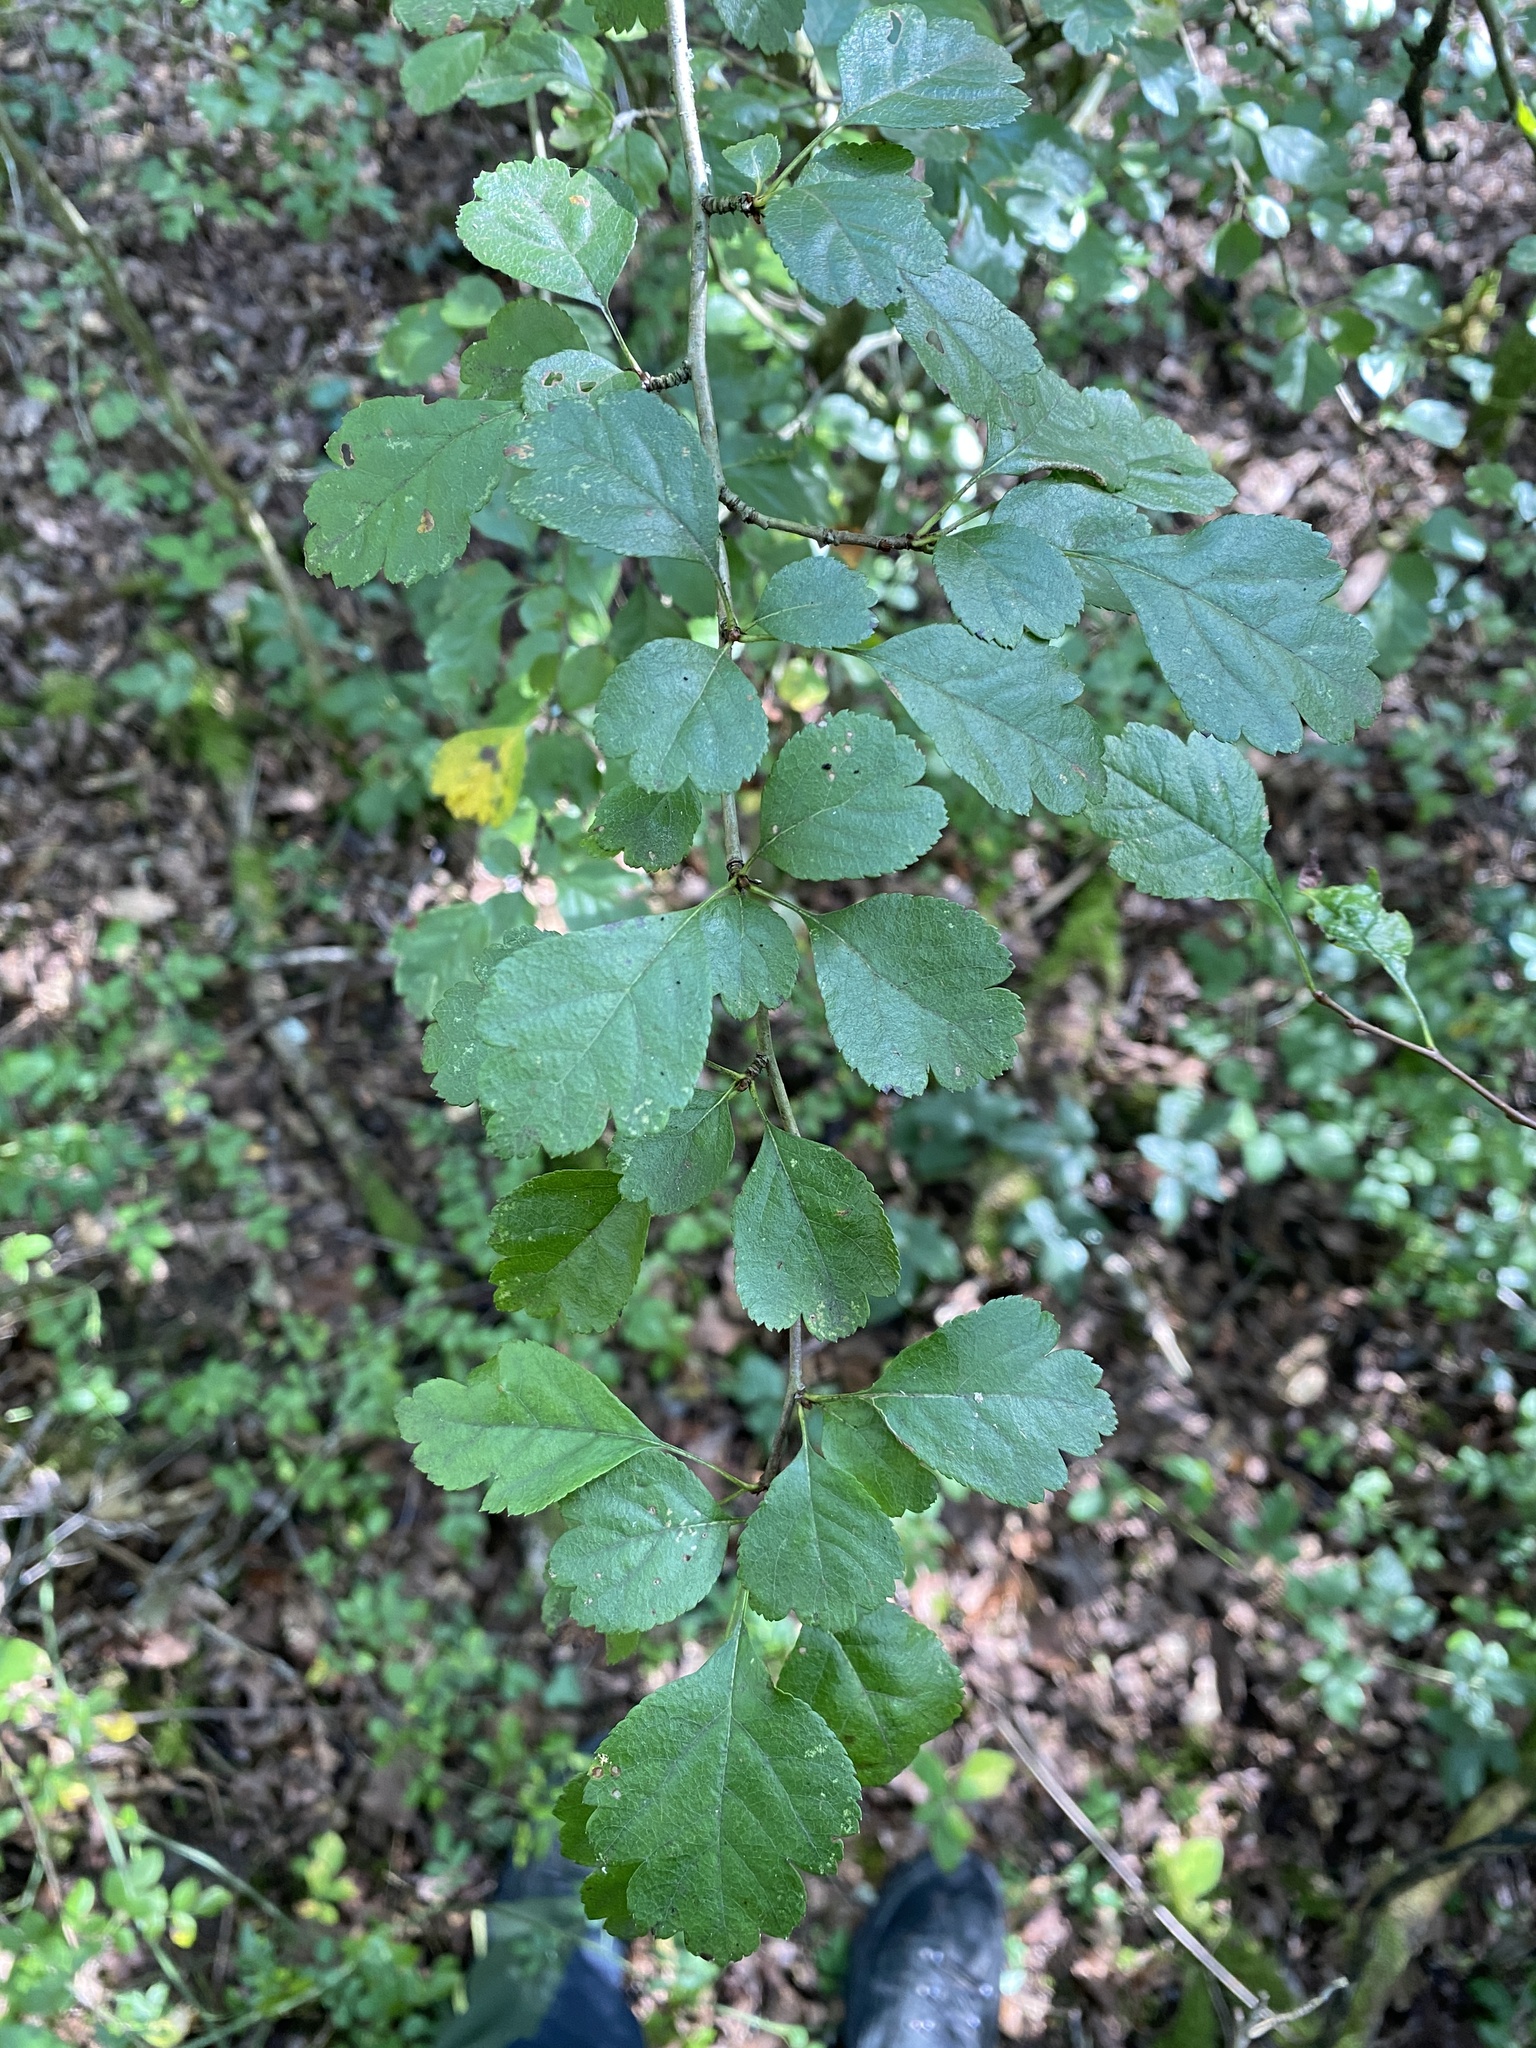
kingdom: Plantae
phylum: Tracheophyta
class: Magnoliopsida
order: Rosales
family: Rosaceae
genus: Crataegus
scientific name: Crataegus laevigata
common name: Midland hawthorn
